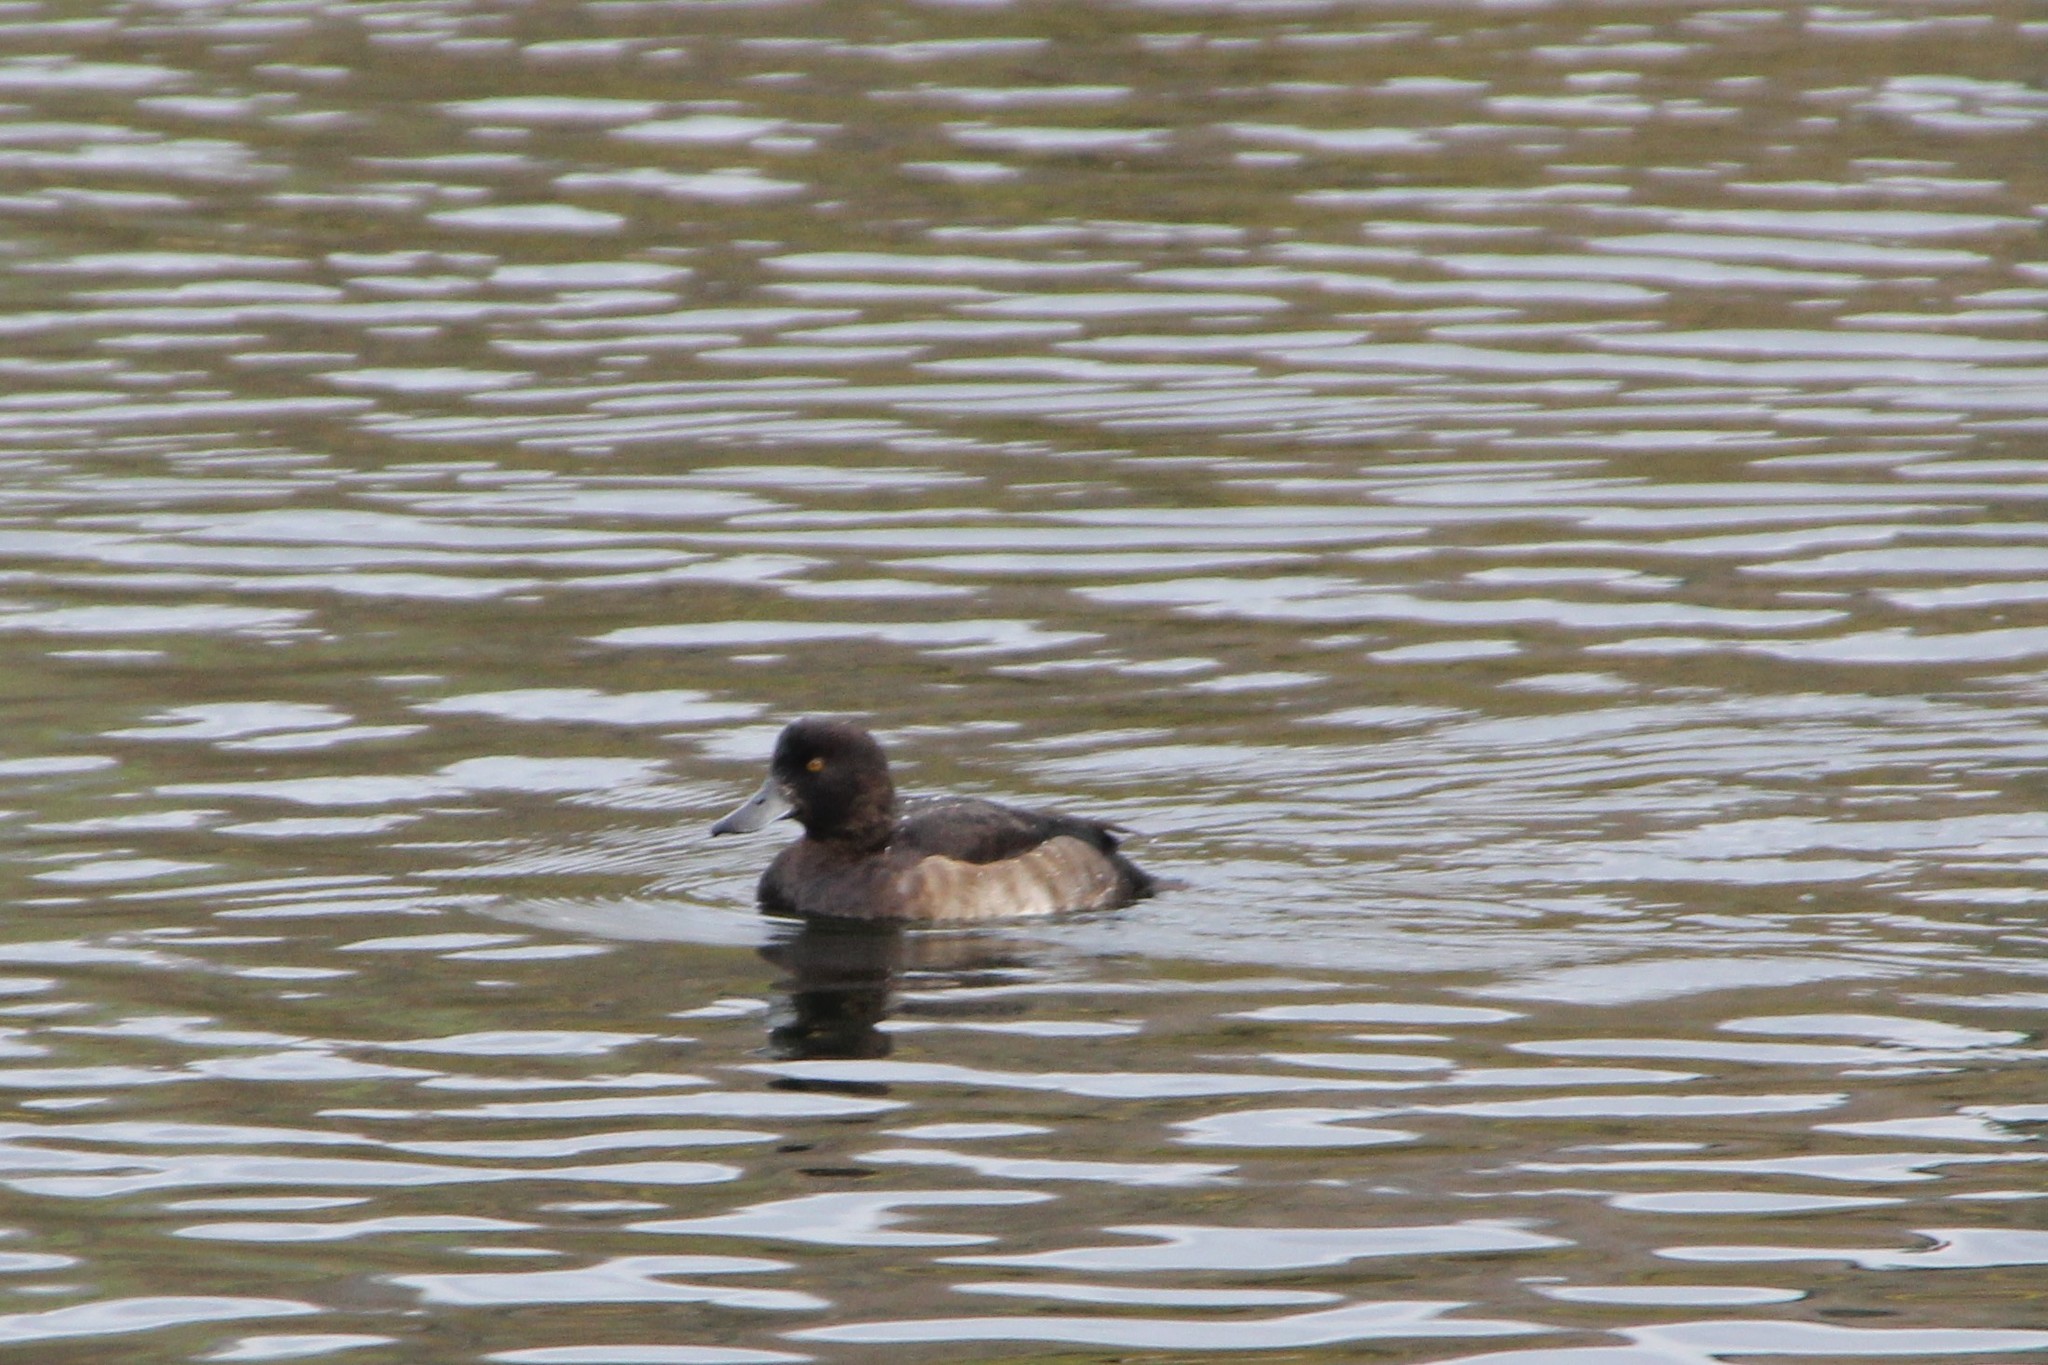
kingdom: Animalia
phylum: Chordata
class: Aves
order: Anseriformes
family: Anatidae
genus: Aythya
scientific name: Aythya marila
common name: Greater scaup
